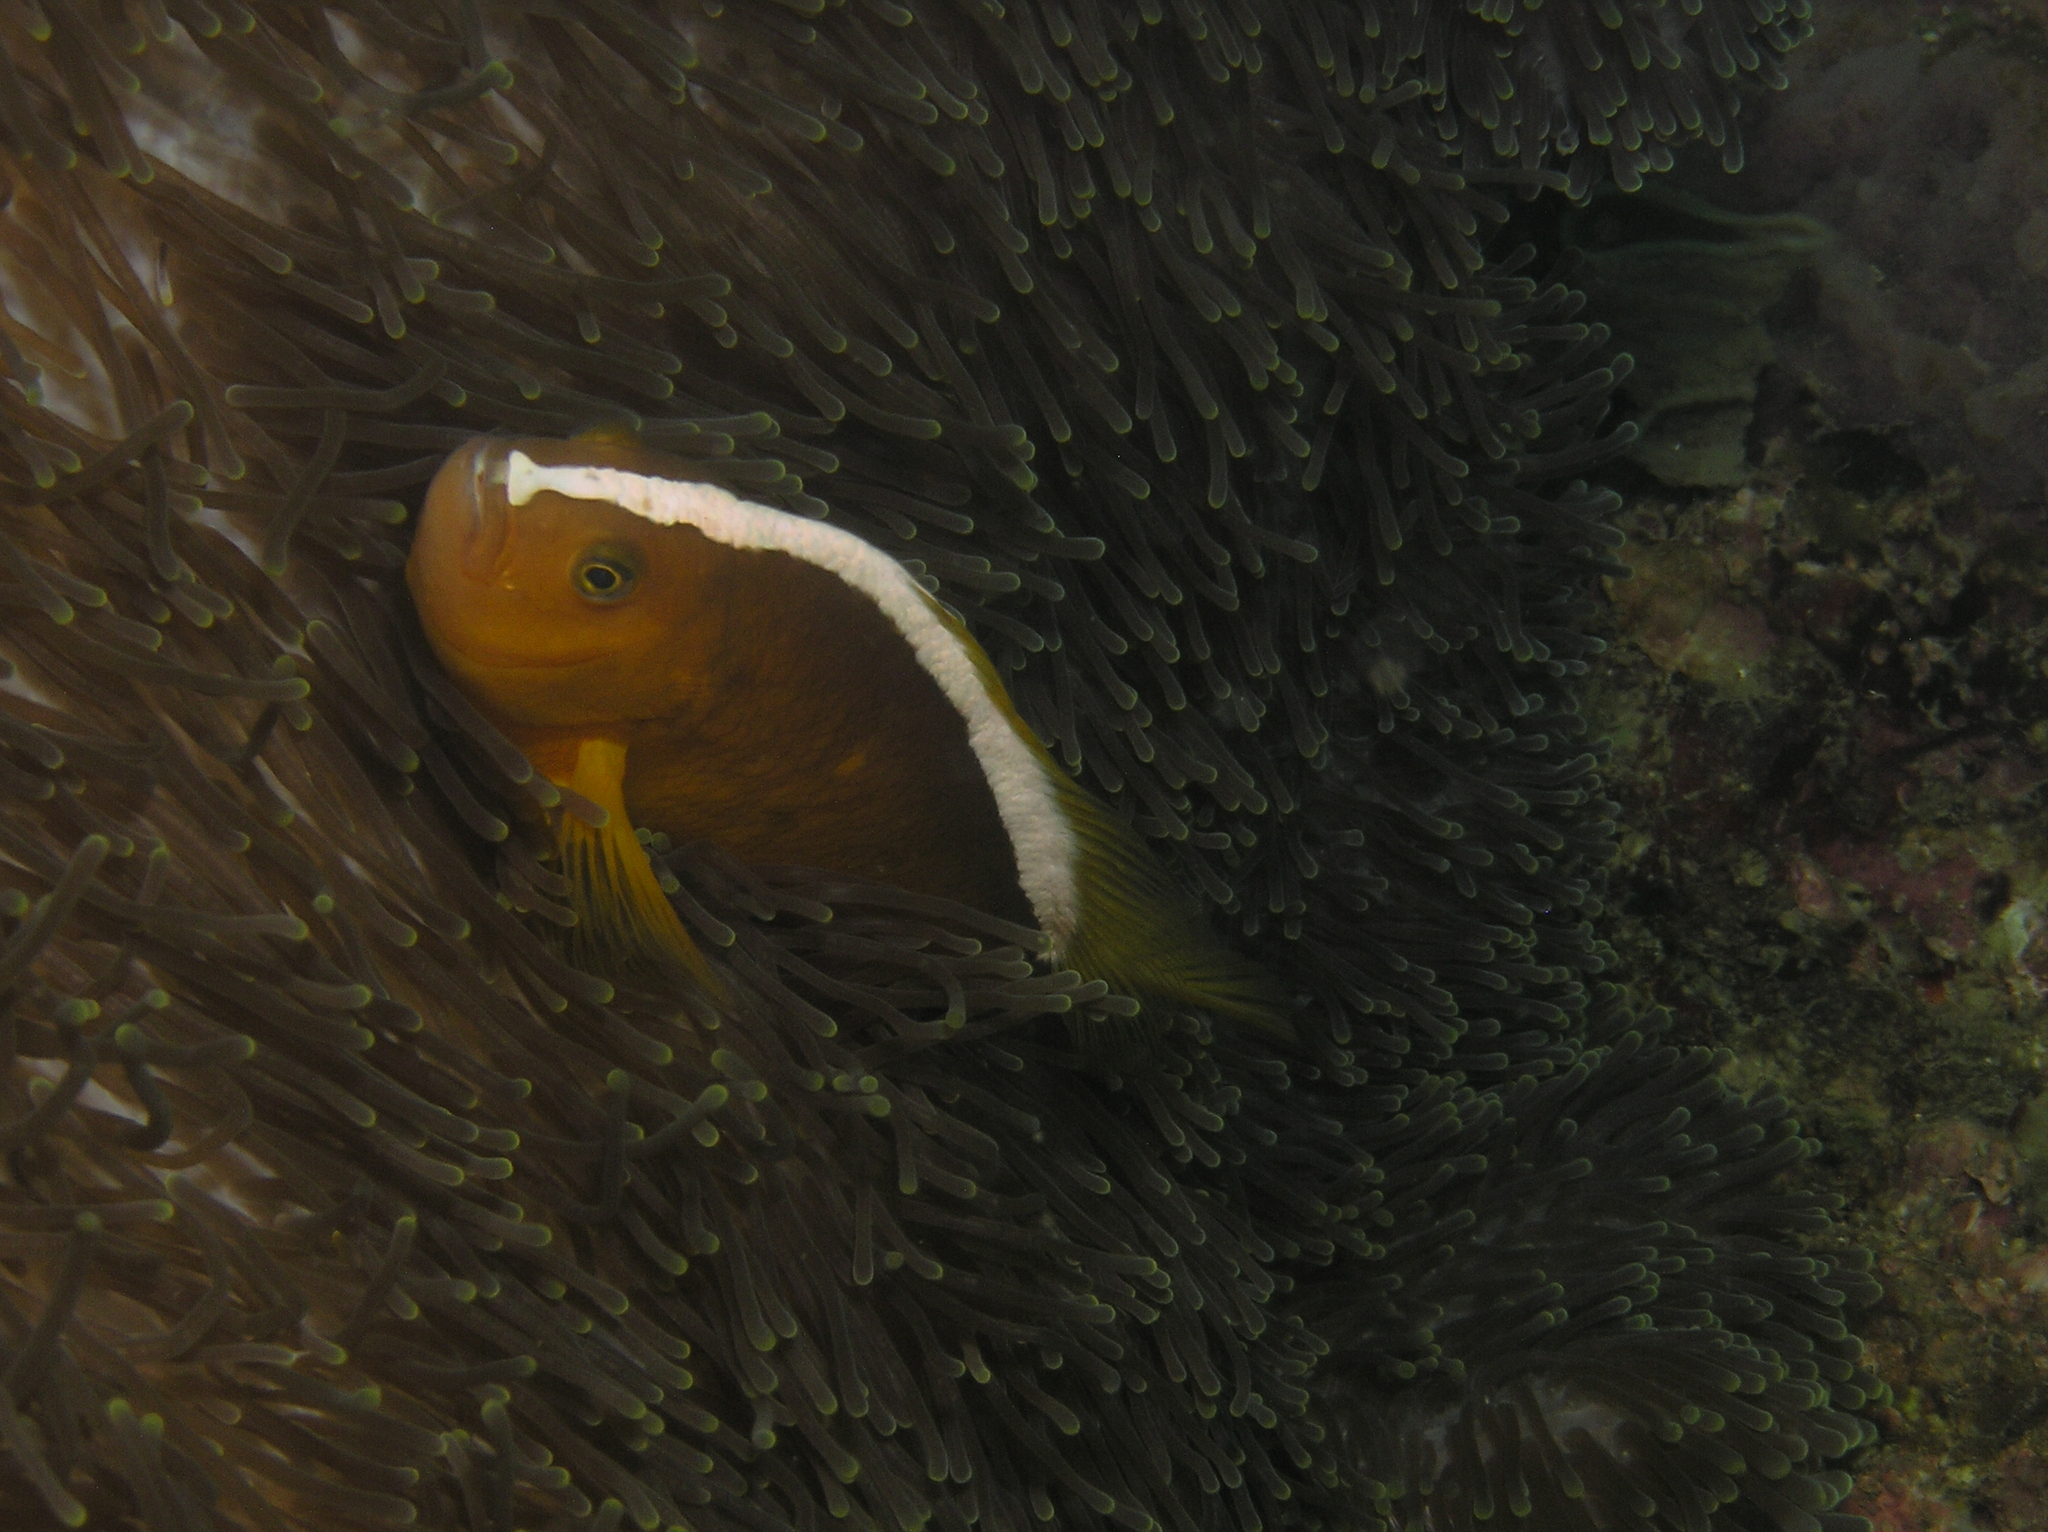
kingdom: Animalia
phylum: Chordata
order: Perciformes
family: Pomacentridae
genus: Amphiprion
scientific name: Amphiprion sandaracinos
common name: Orange anemonefish
